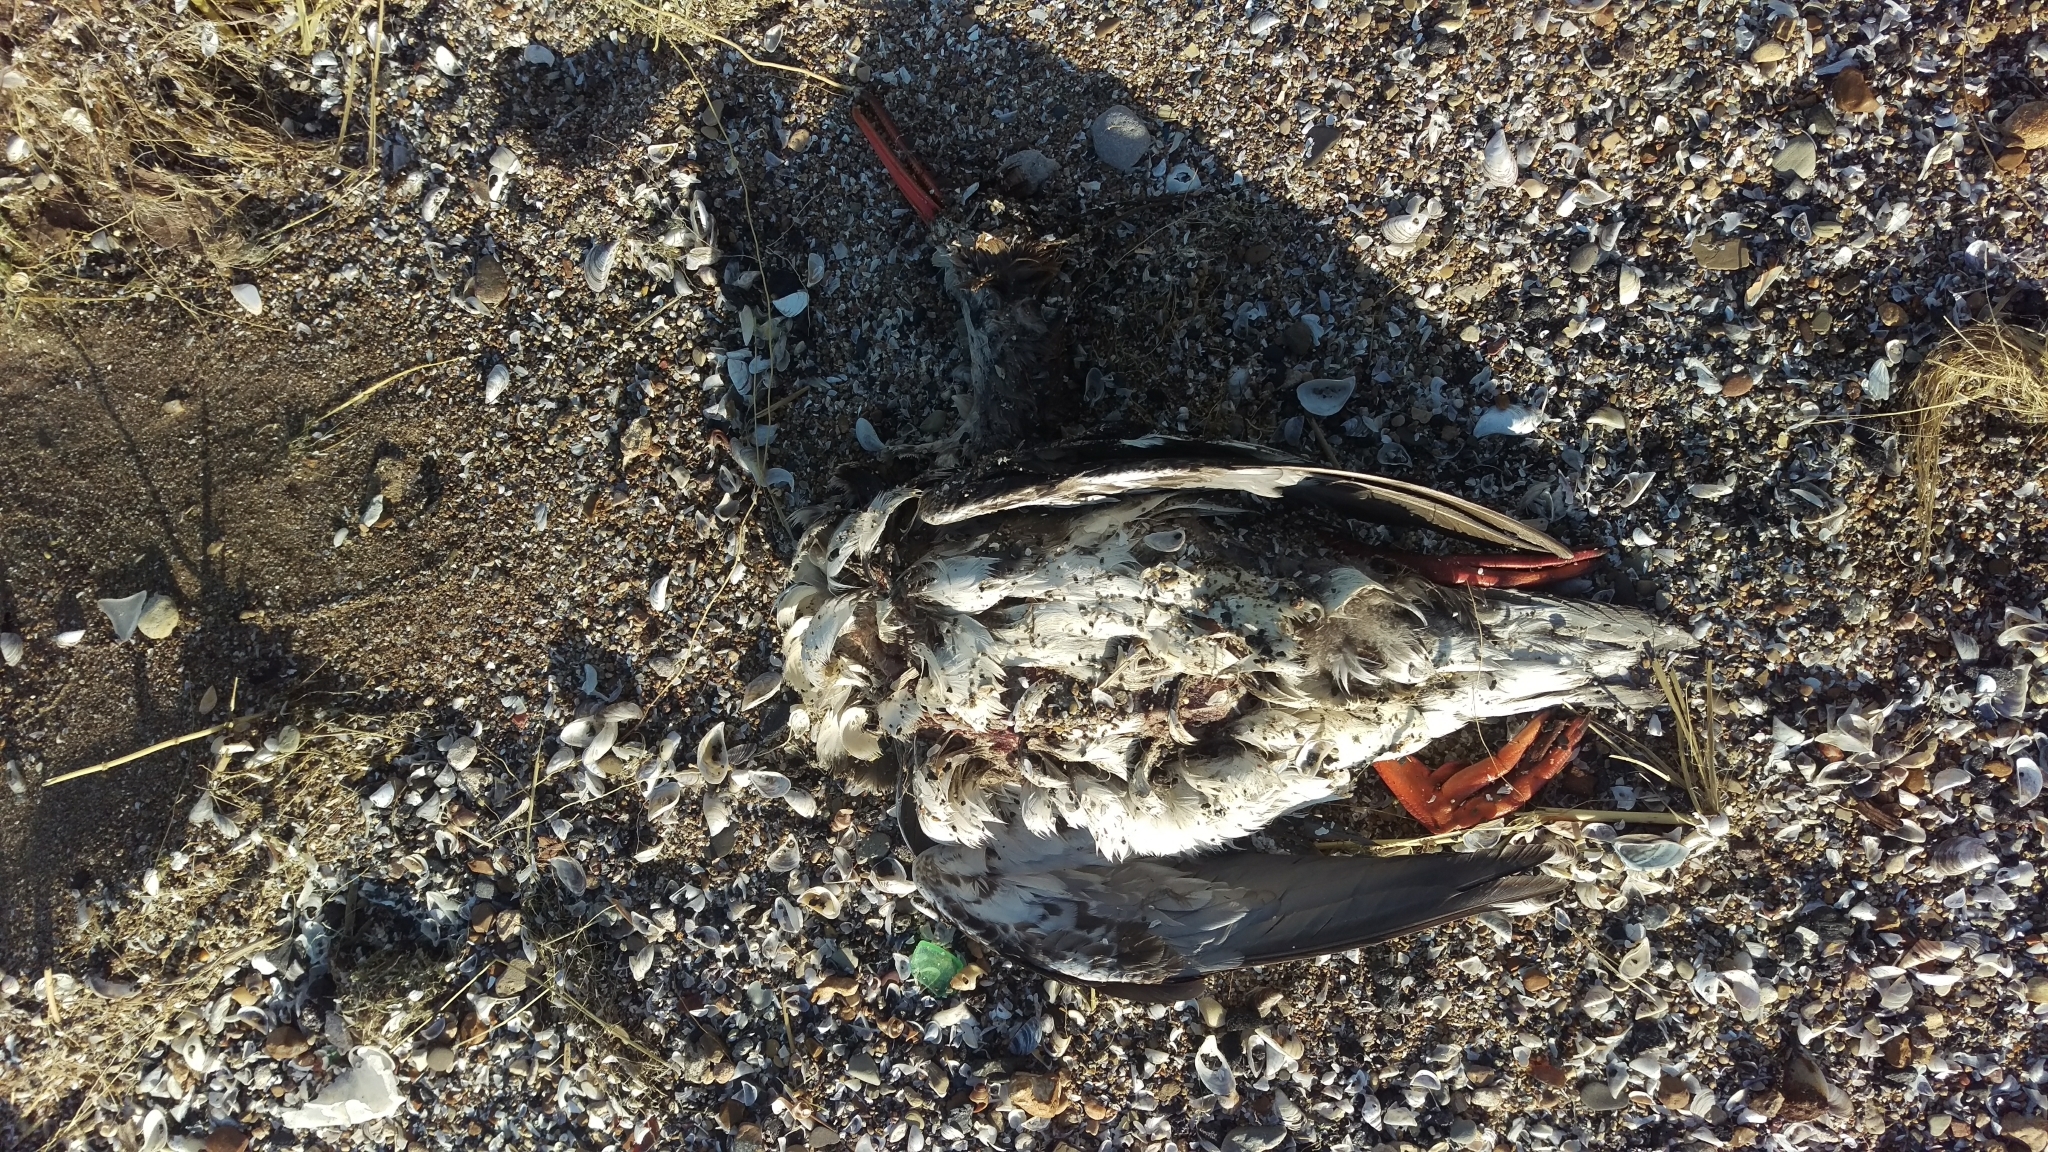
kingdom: Animalia
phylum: Chordata
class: Aves
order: Anseriformes
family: Anatidae
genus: Mergus
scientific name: Mergus serrator
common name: Red-breasted merganser
